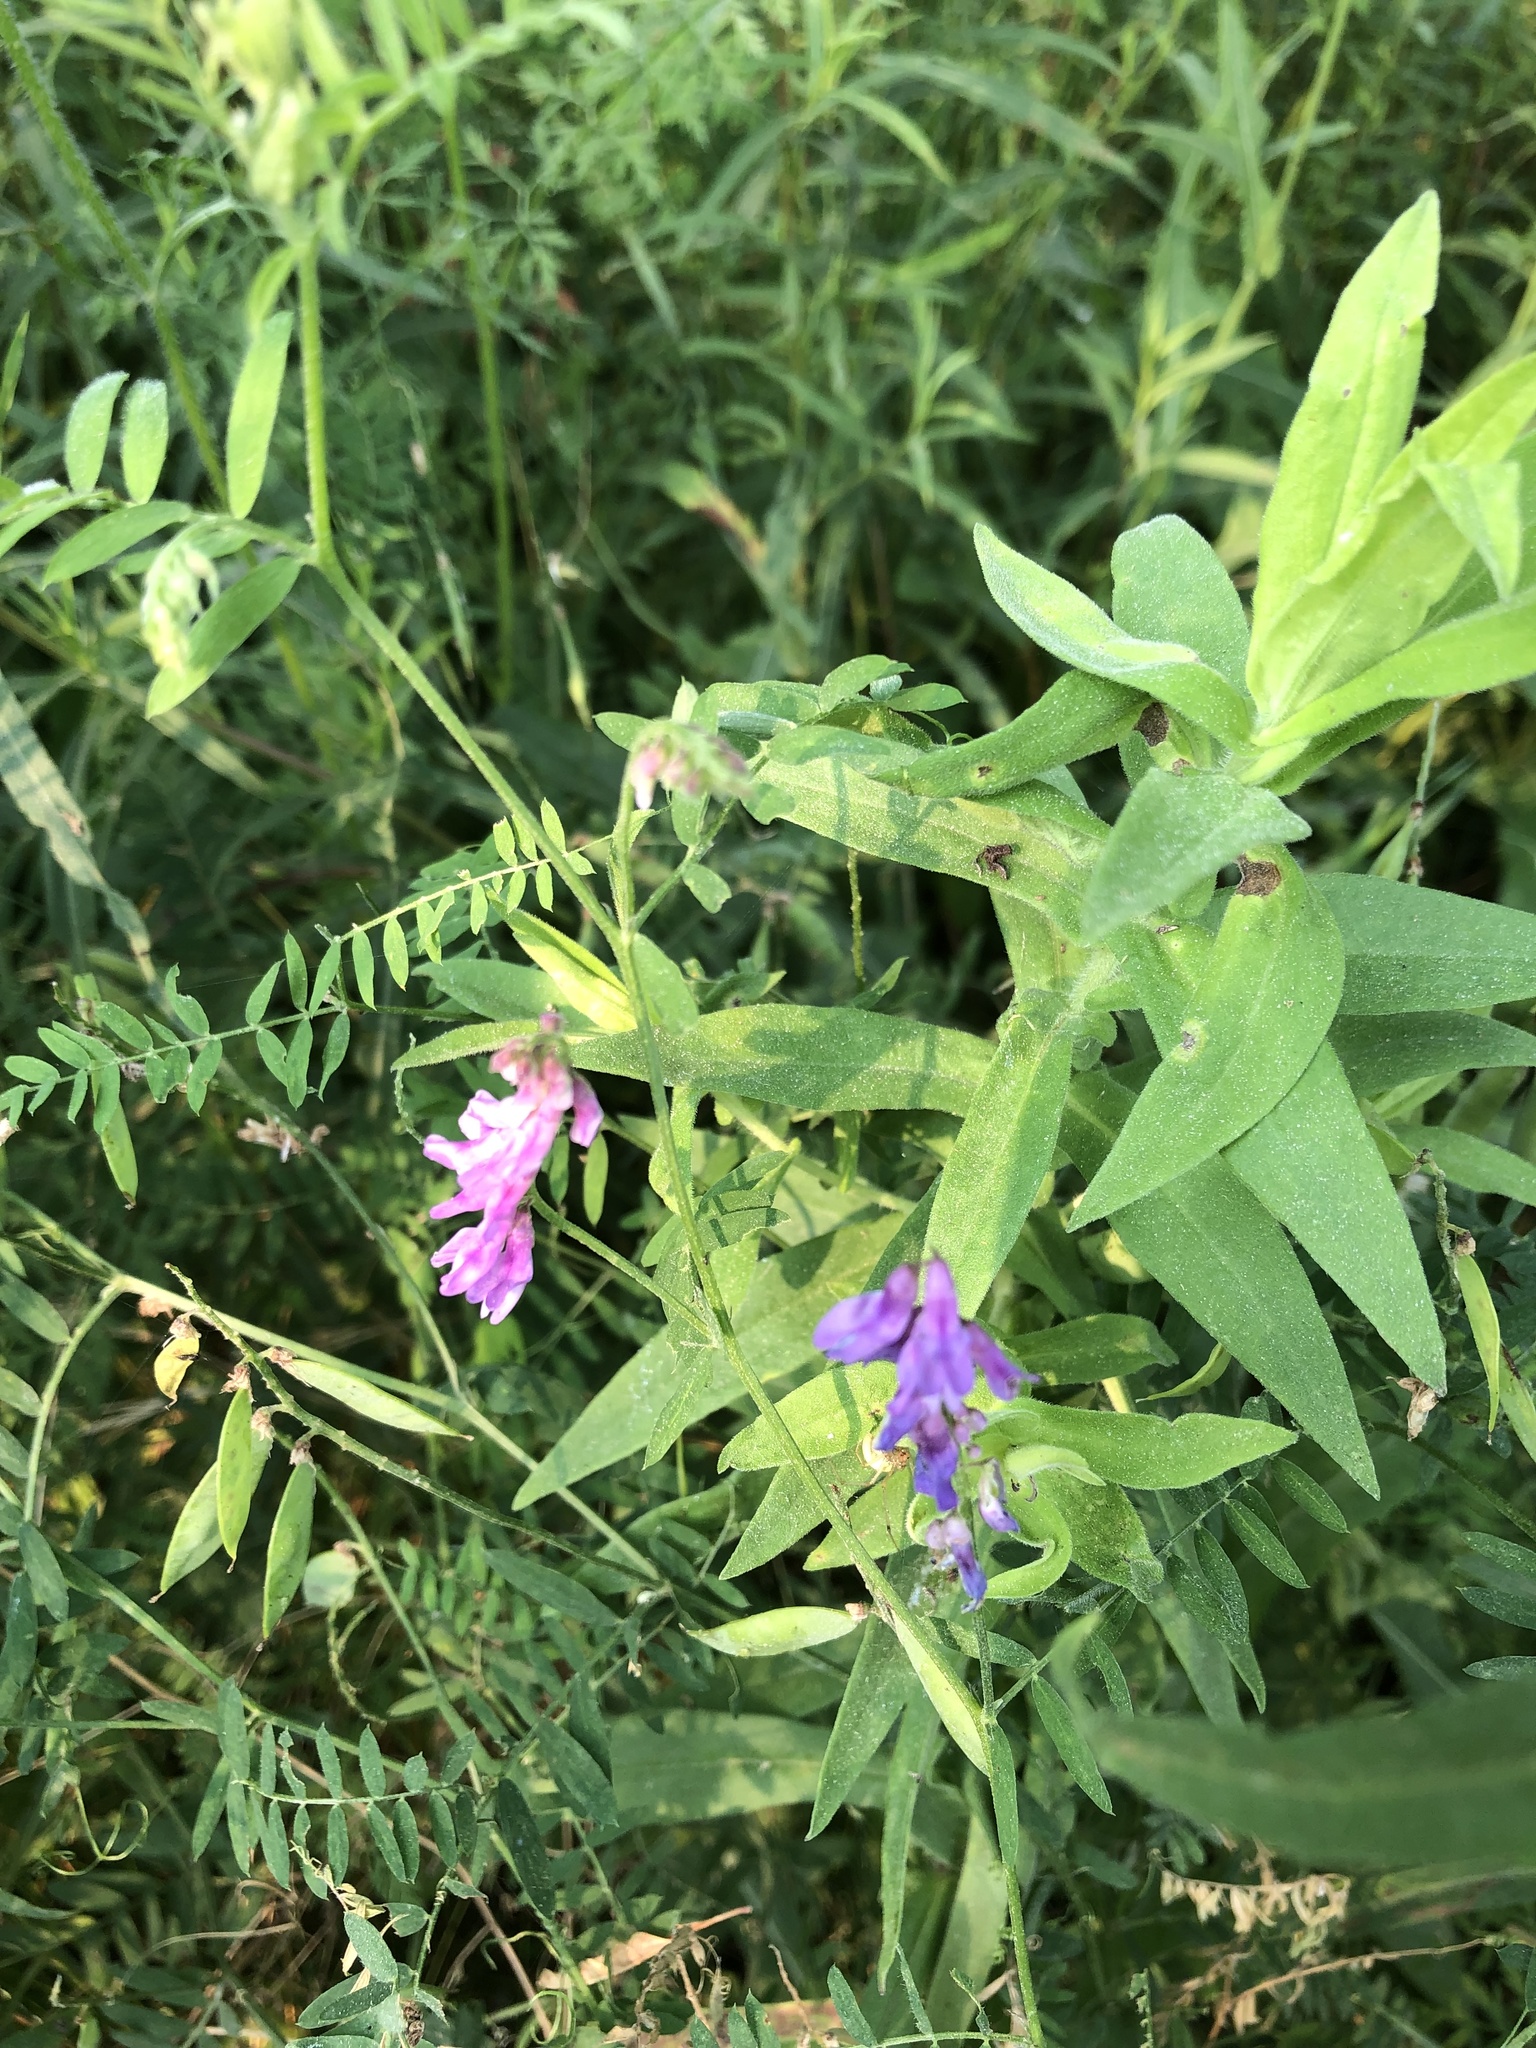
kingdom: Plantae
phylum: Tracheophyta
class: Magnoliopsida
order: Fabales
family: Fabaceae
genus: Vicia
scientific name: Vicia cracca
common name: Bird vetch
